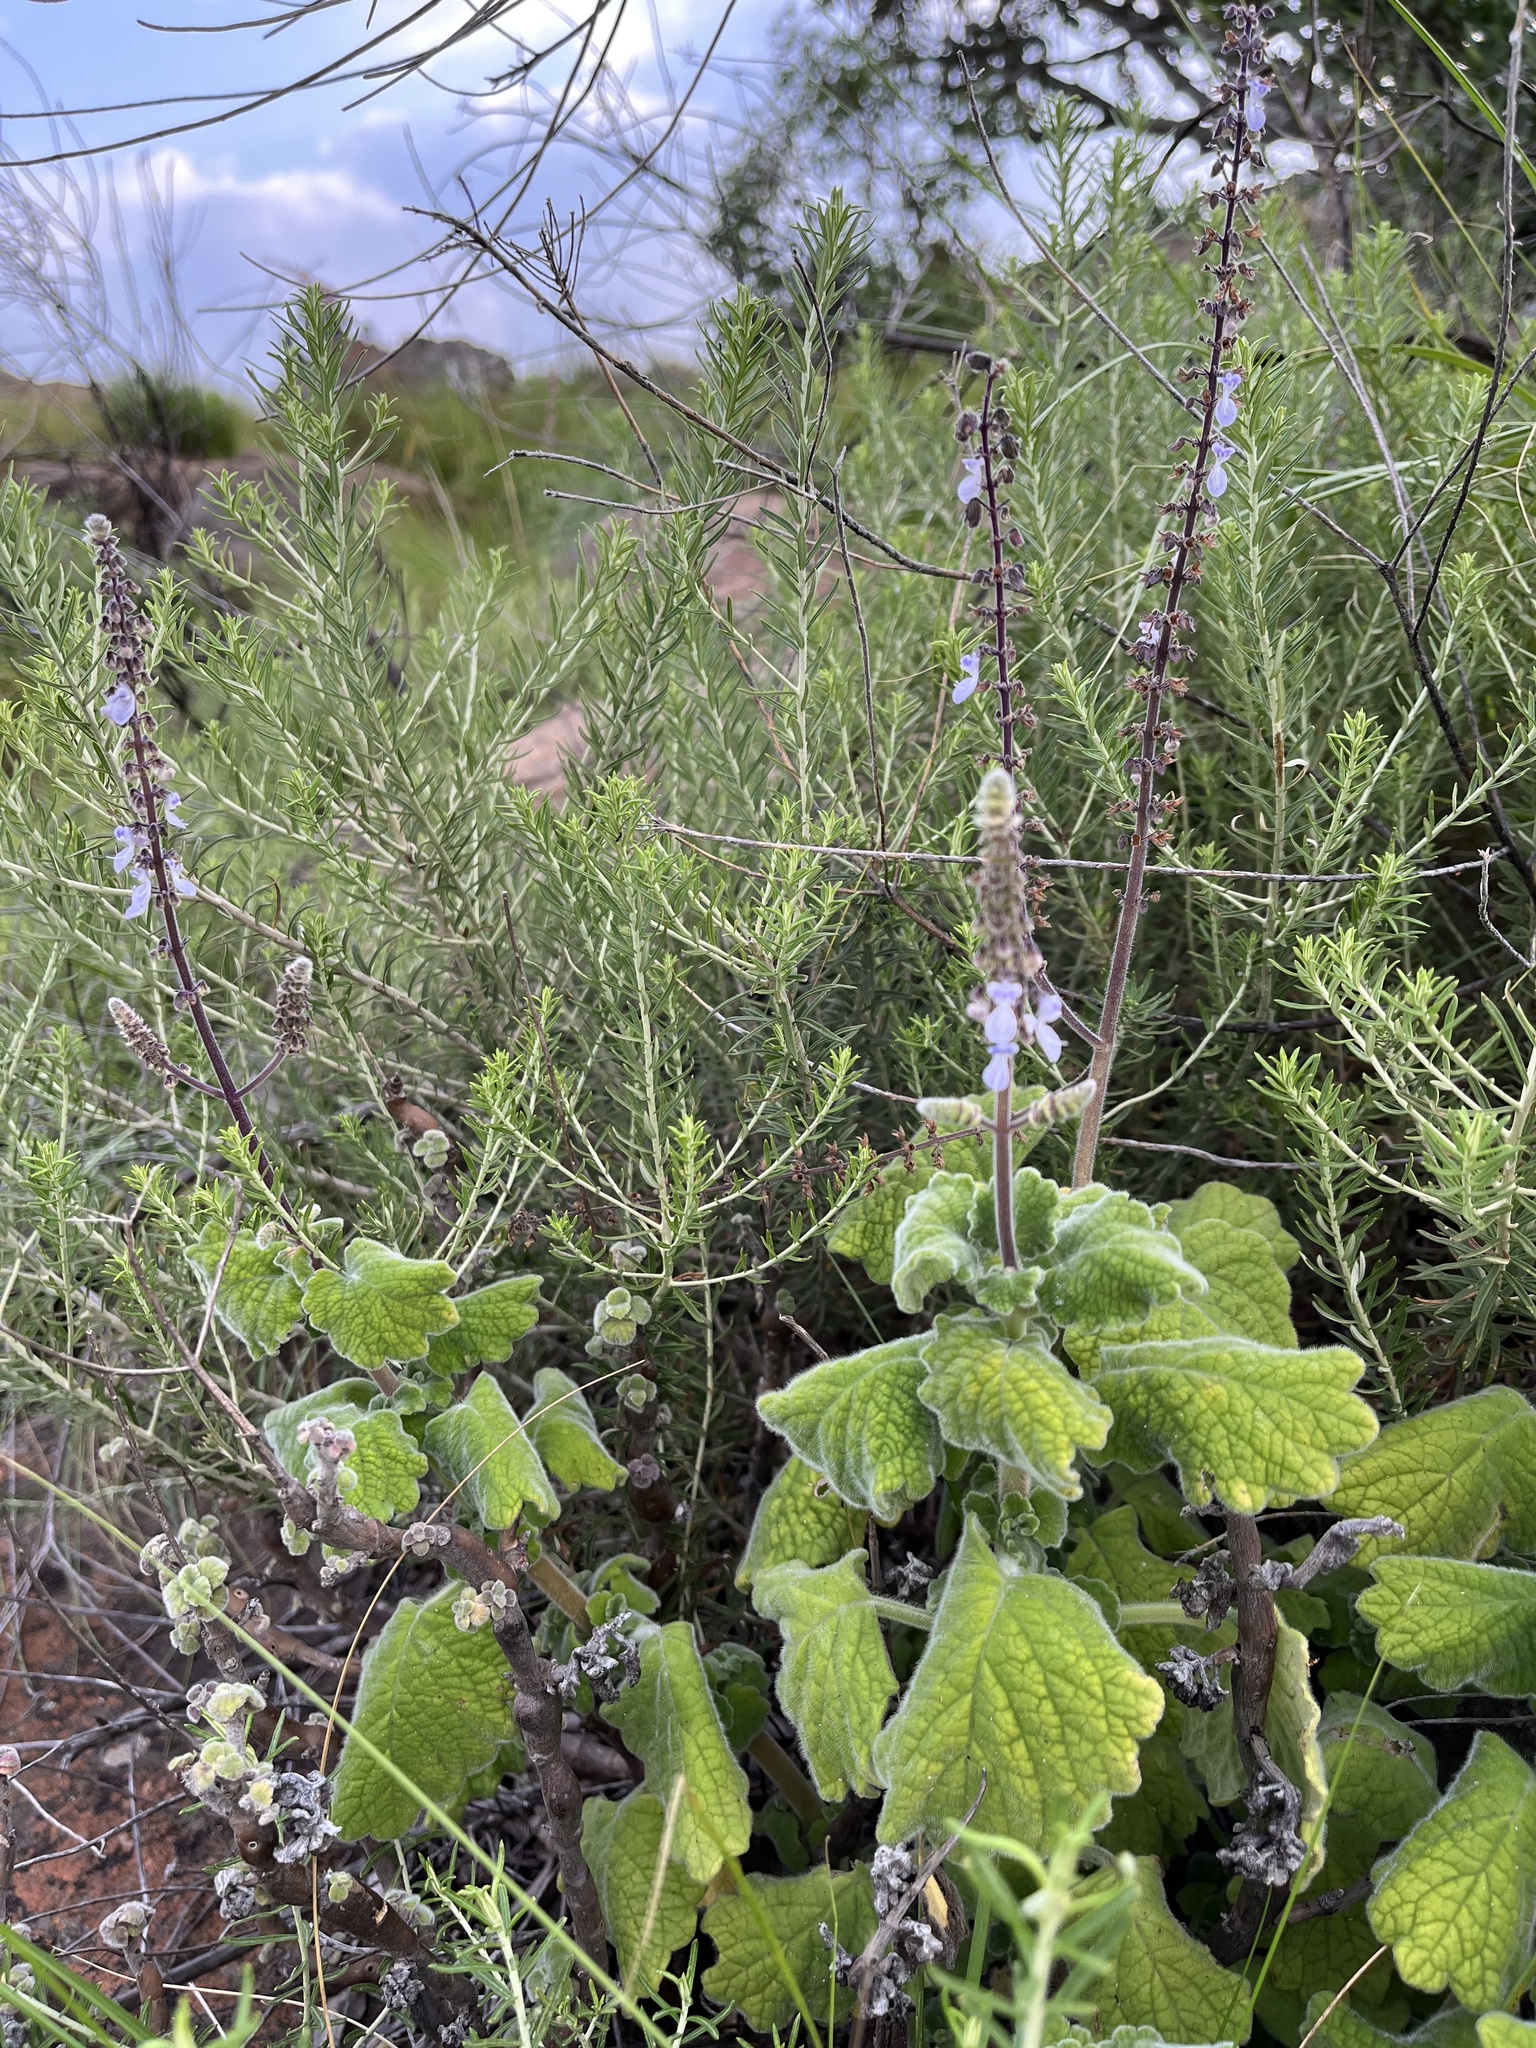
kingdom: Plantae
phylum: Tracheophyta
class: Magnoliopsida
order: Lamiales
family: Lamiaceae
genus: Coleus
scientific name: Coleus hadiensis
